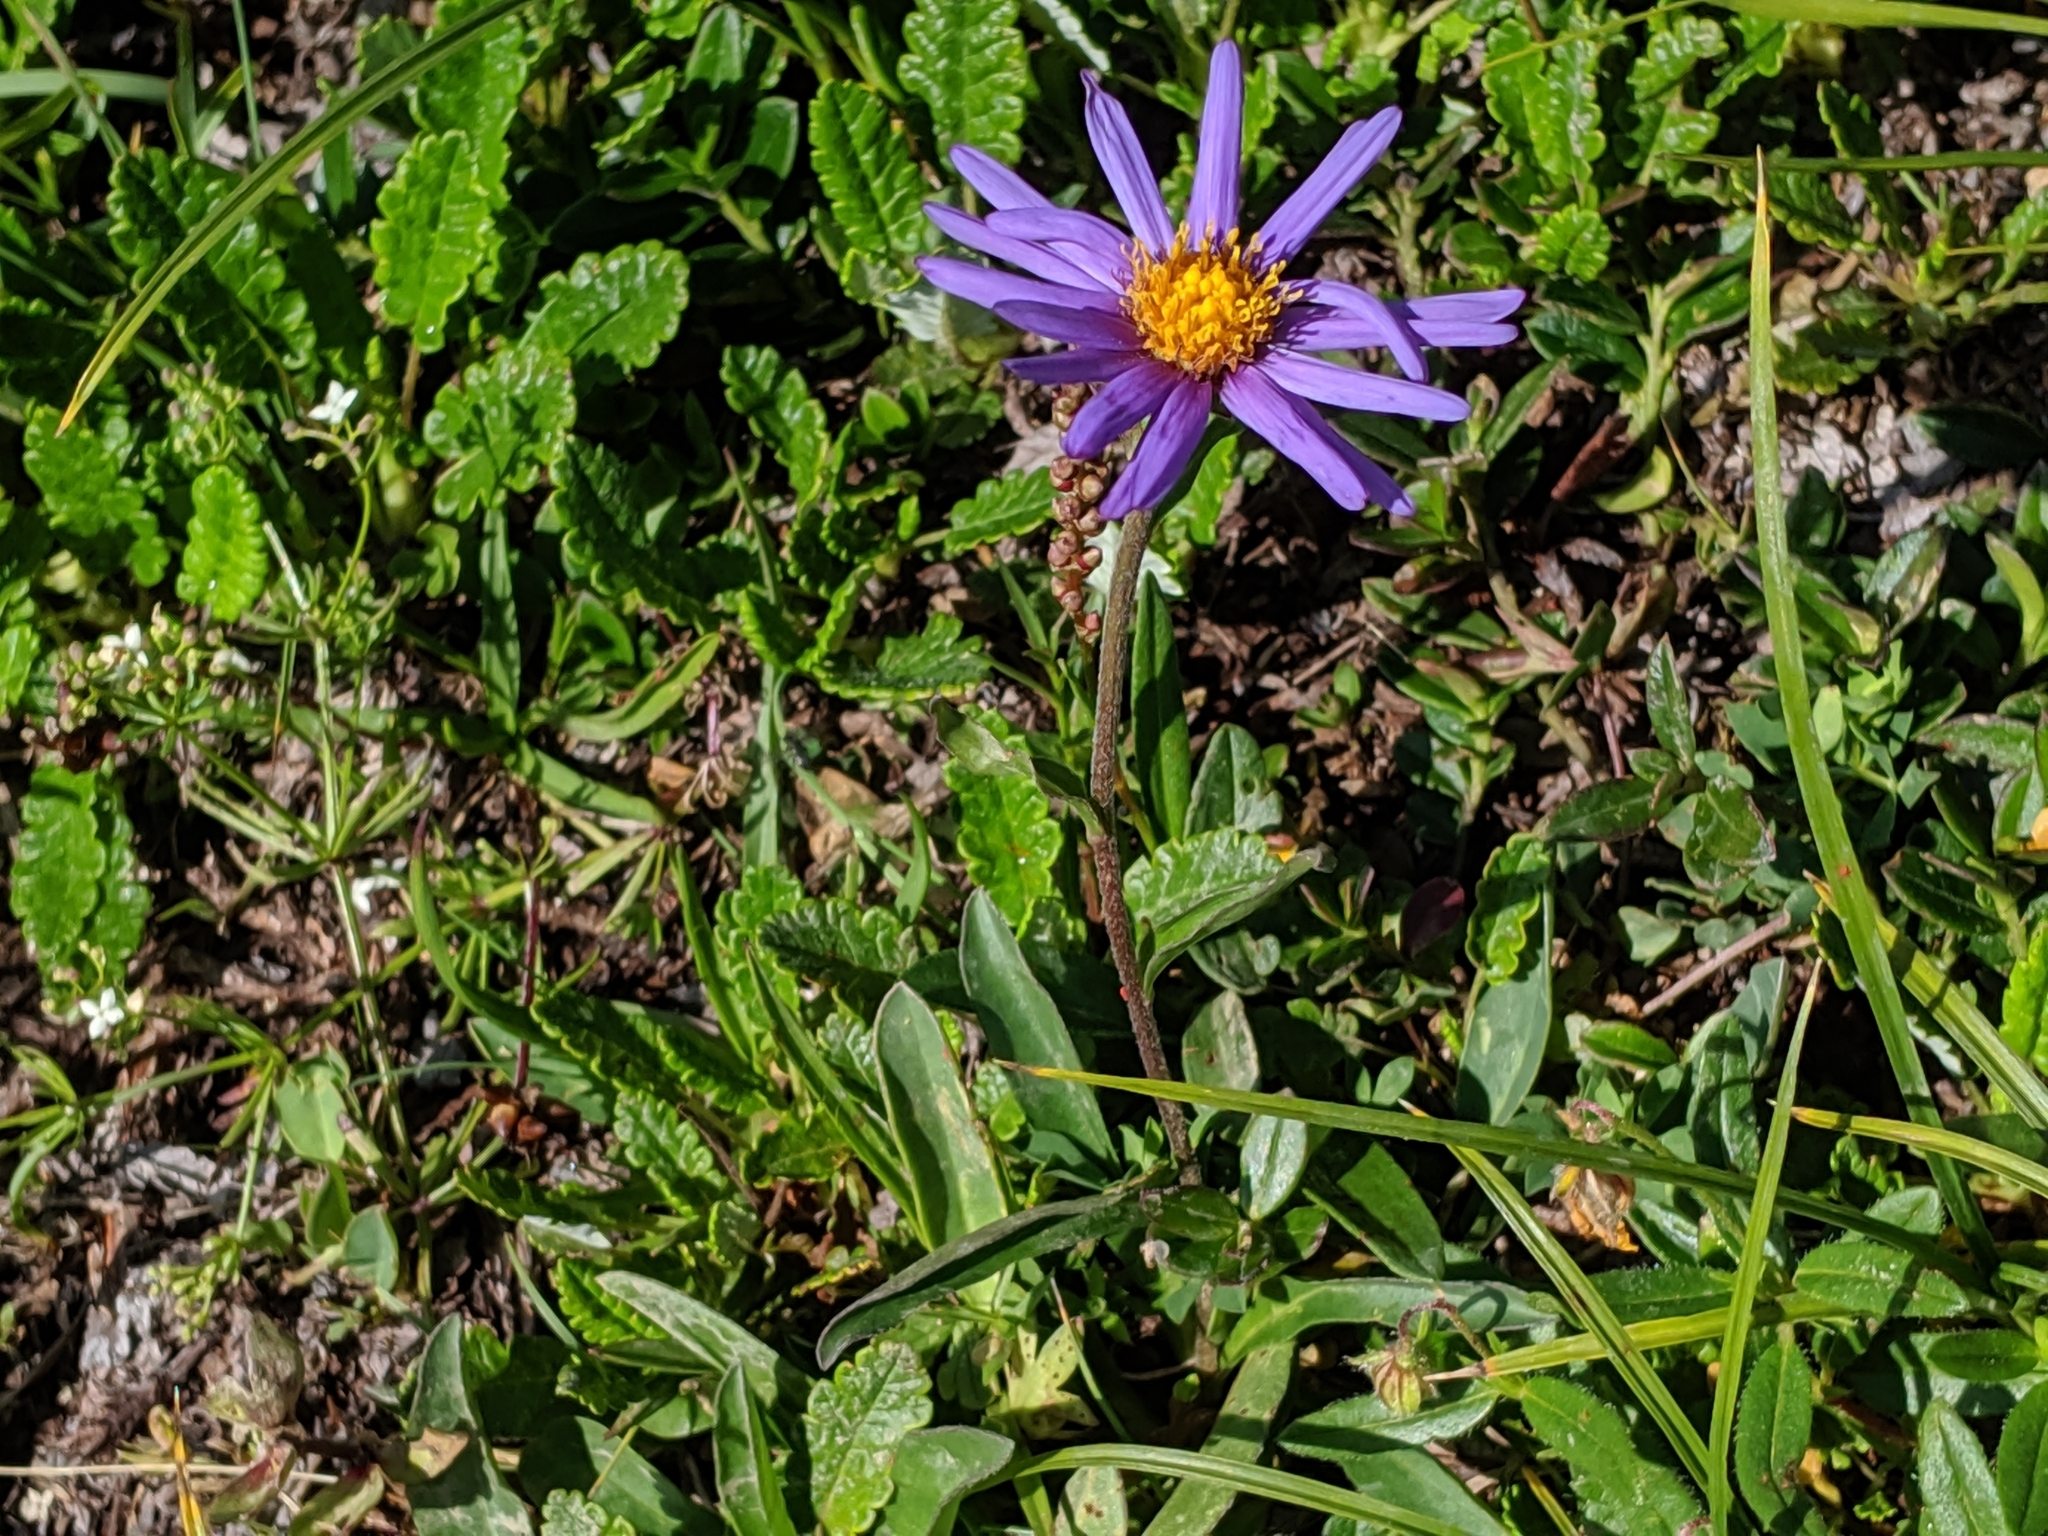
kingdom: Plantae
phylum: Tracheophyta
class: Magnoliopsida
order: Asterales
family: Asteraceae
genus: Aster
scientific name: Aster alpinus
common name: Alpine aster
